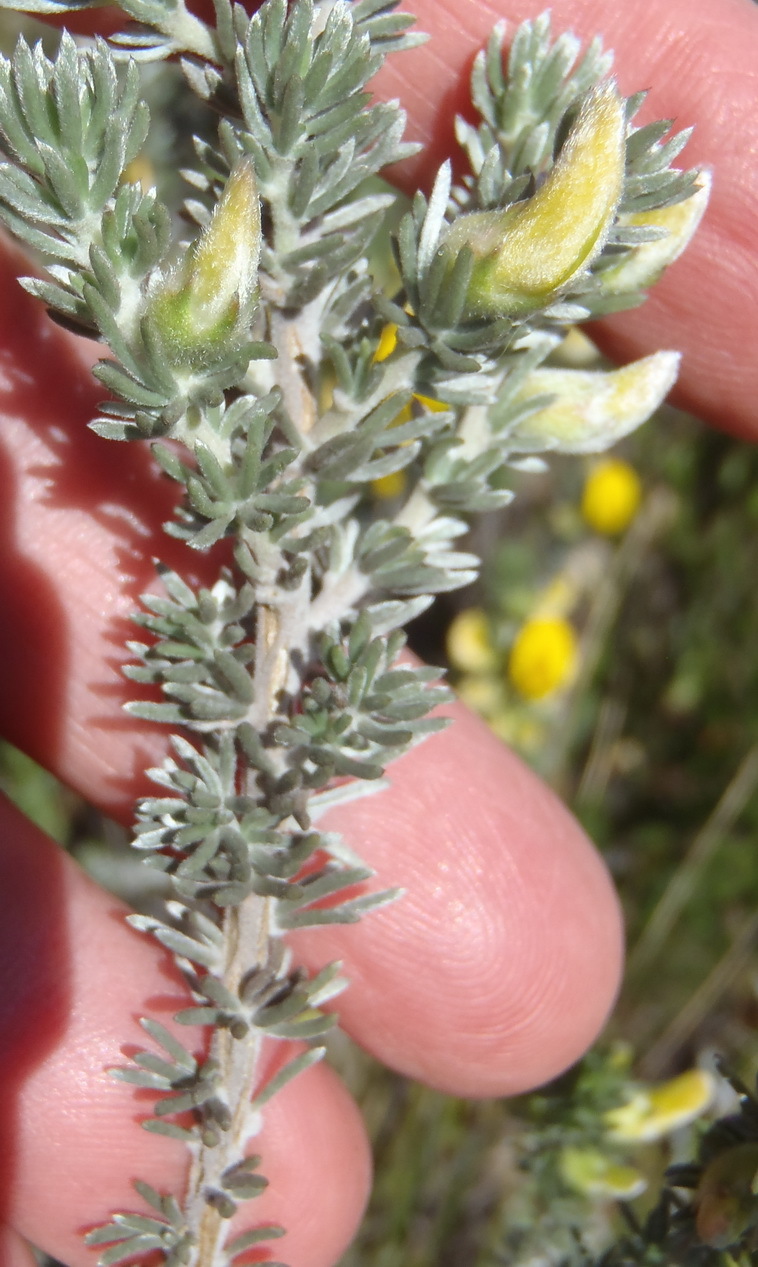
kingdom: Plantae
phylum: Tracheophyta
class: Magnoliopsida
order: Fabales
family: Fabaceae
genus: Aspalathus
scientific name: Aspalathus laricifolia
